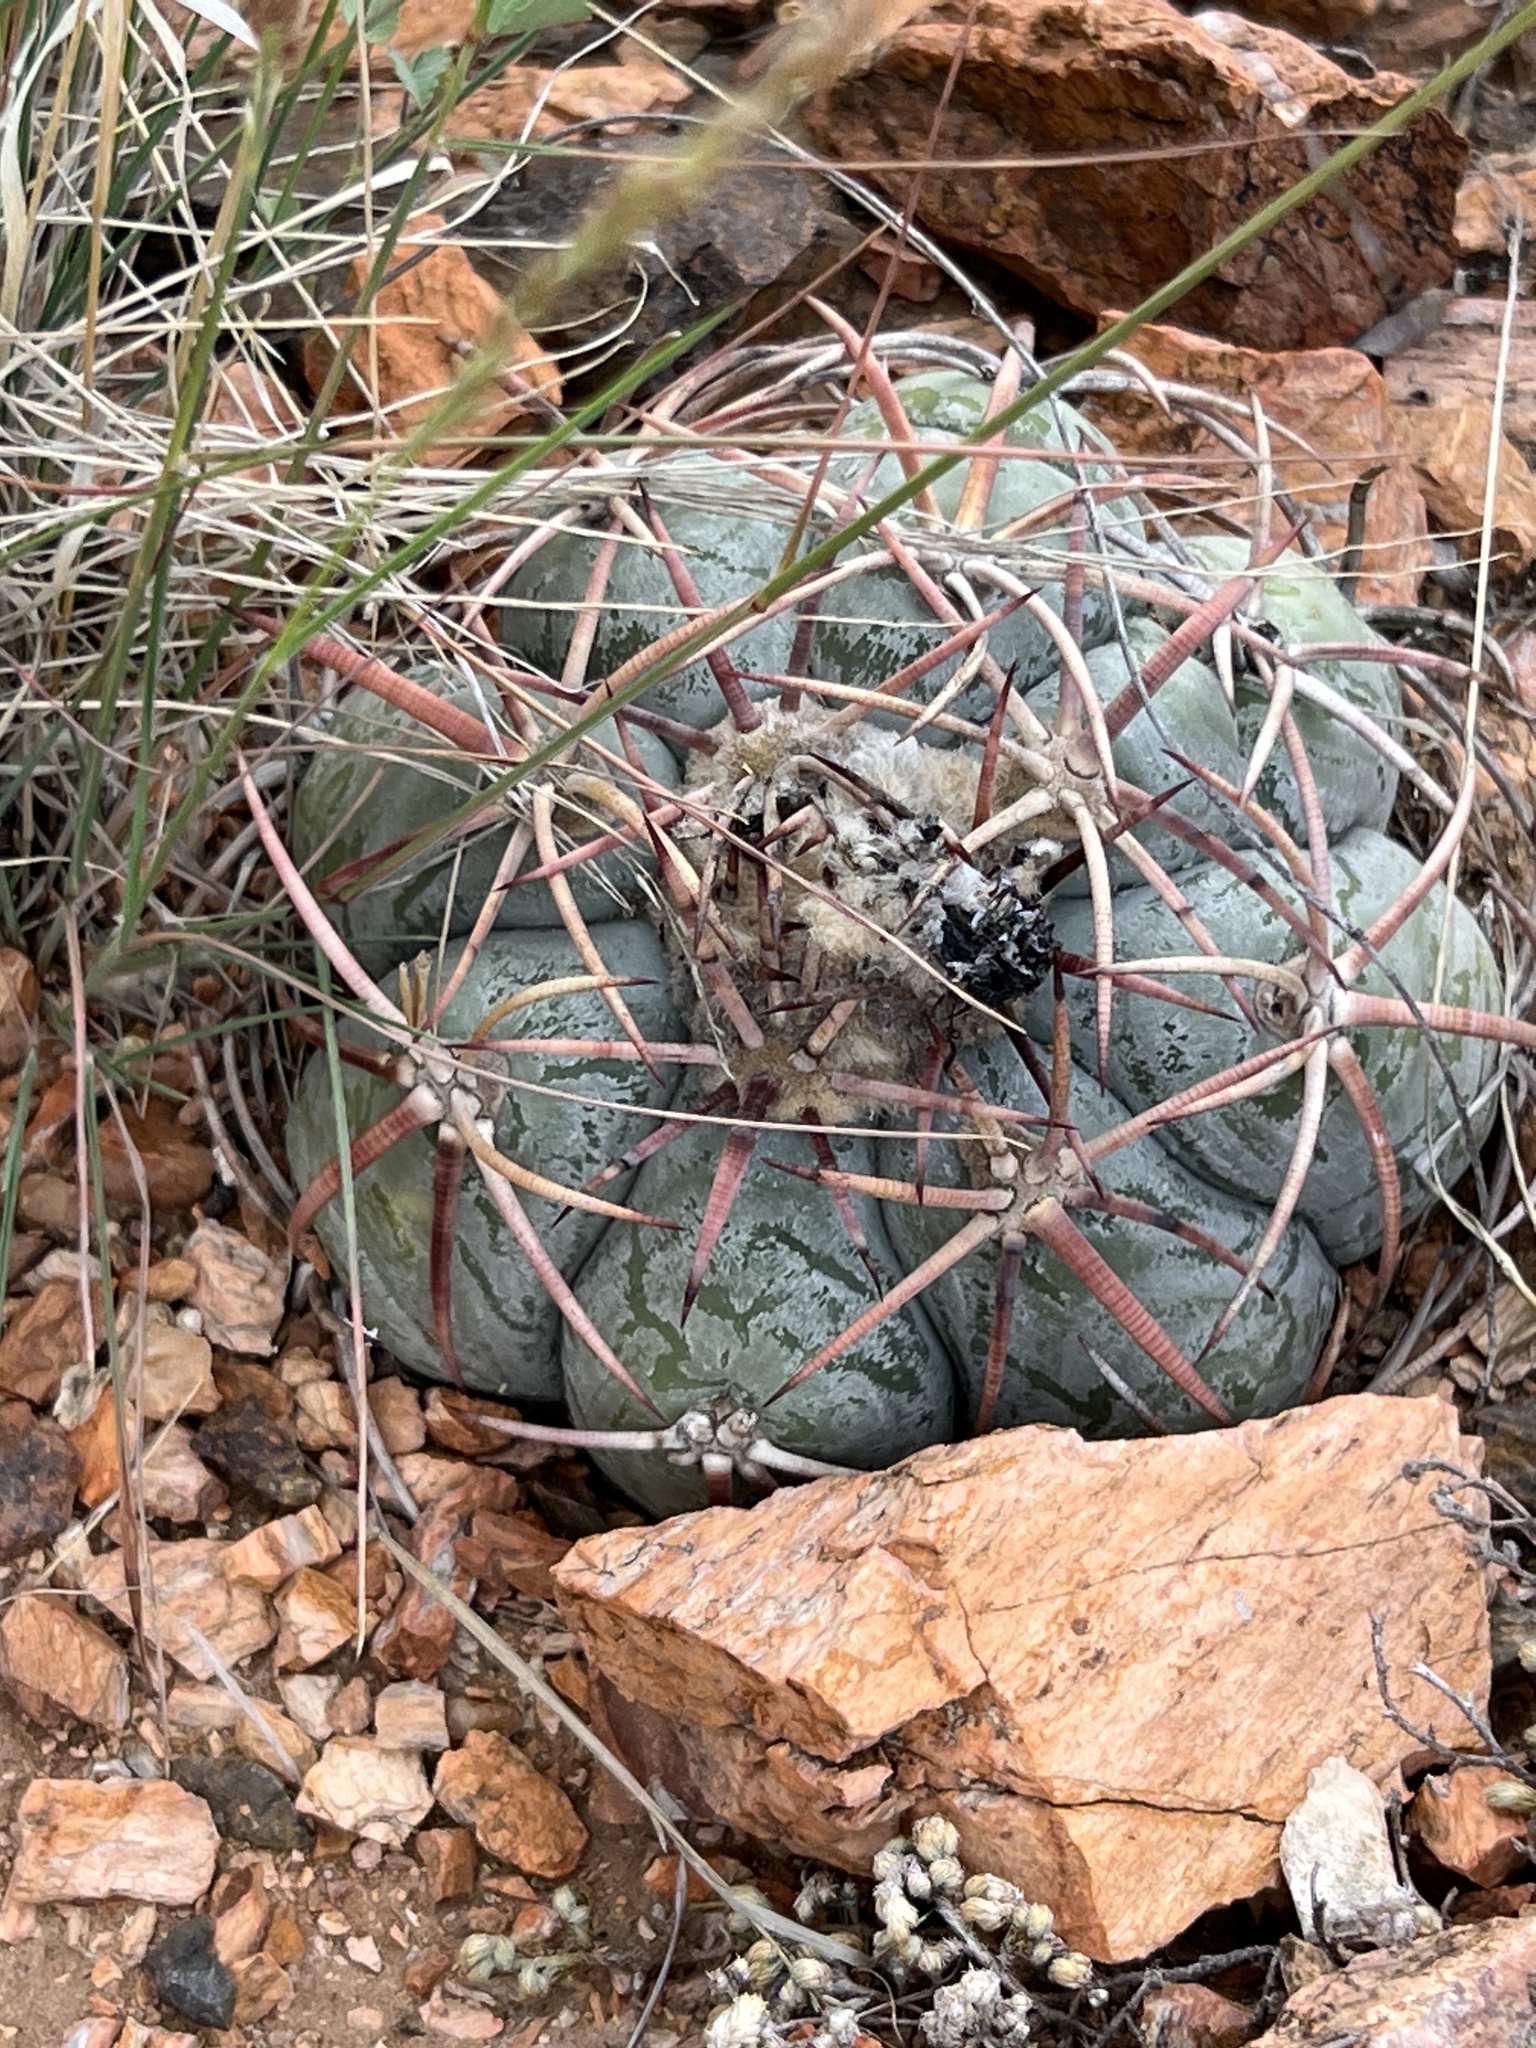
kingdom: Plantae
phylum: Tracheophyta
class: Magnoliopsida
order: Caryophyllales
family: Cactaceae
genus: Echinocactus
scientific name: Echinocactus horizonthalonius
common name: Devilshead
